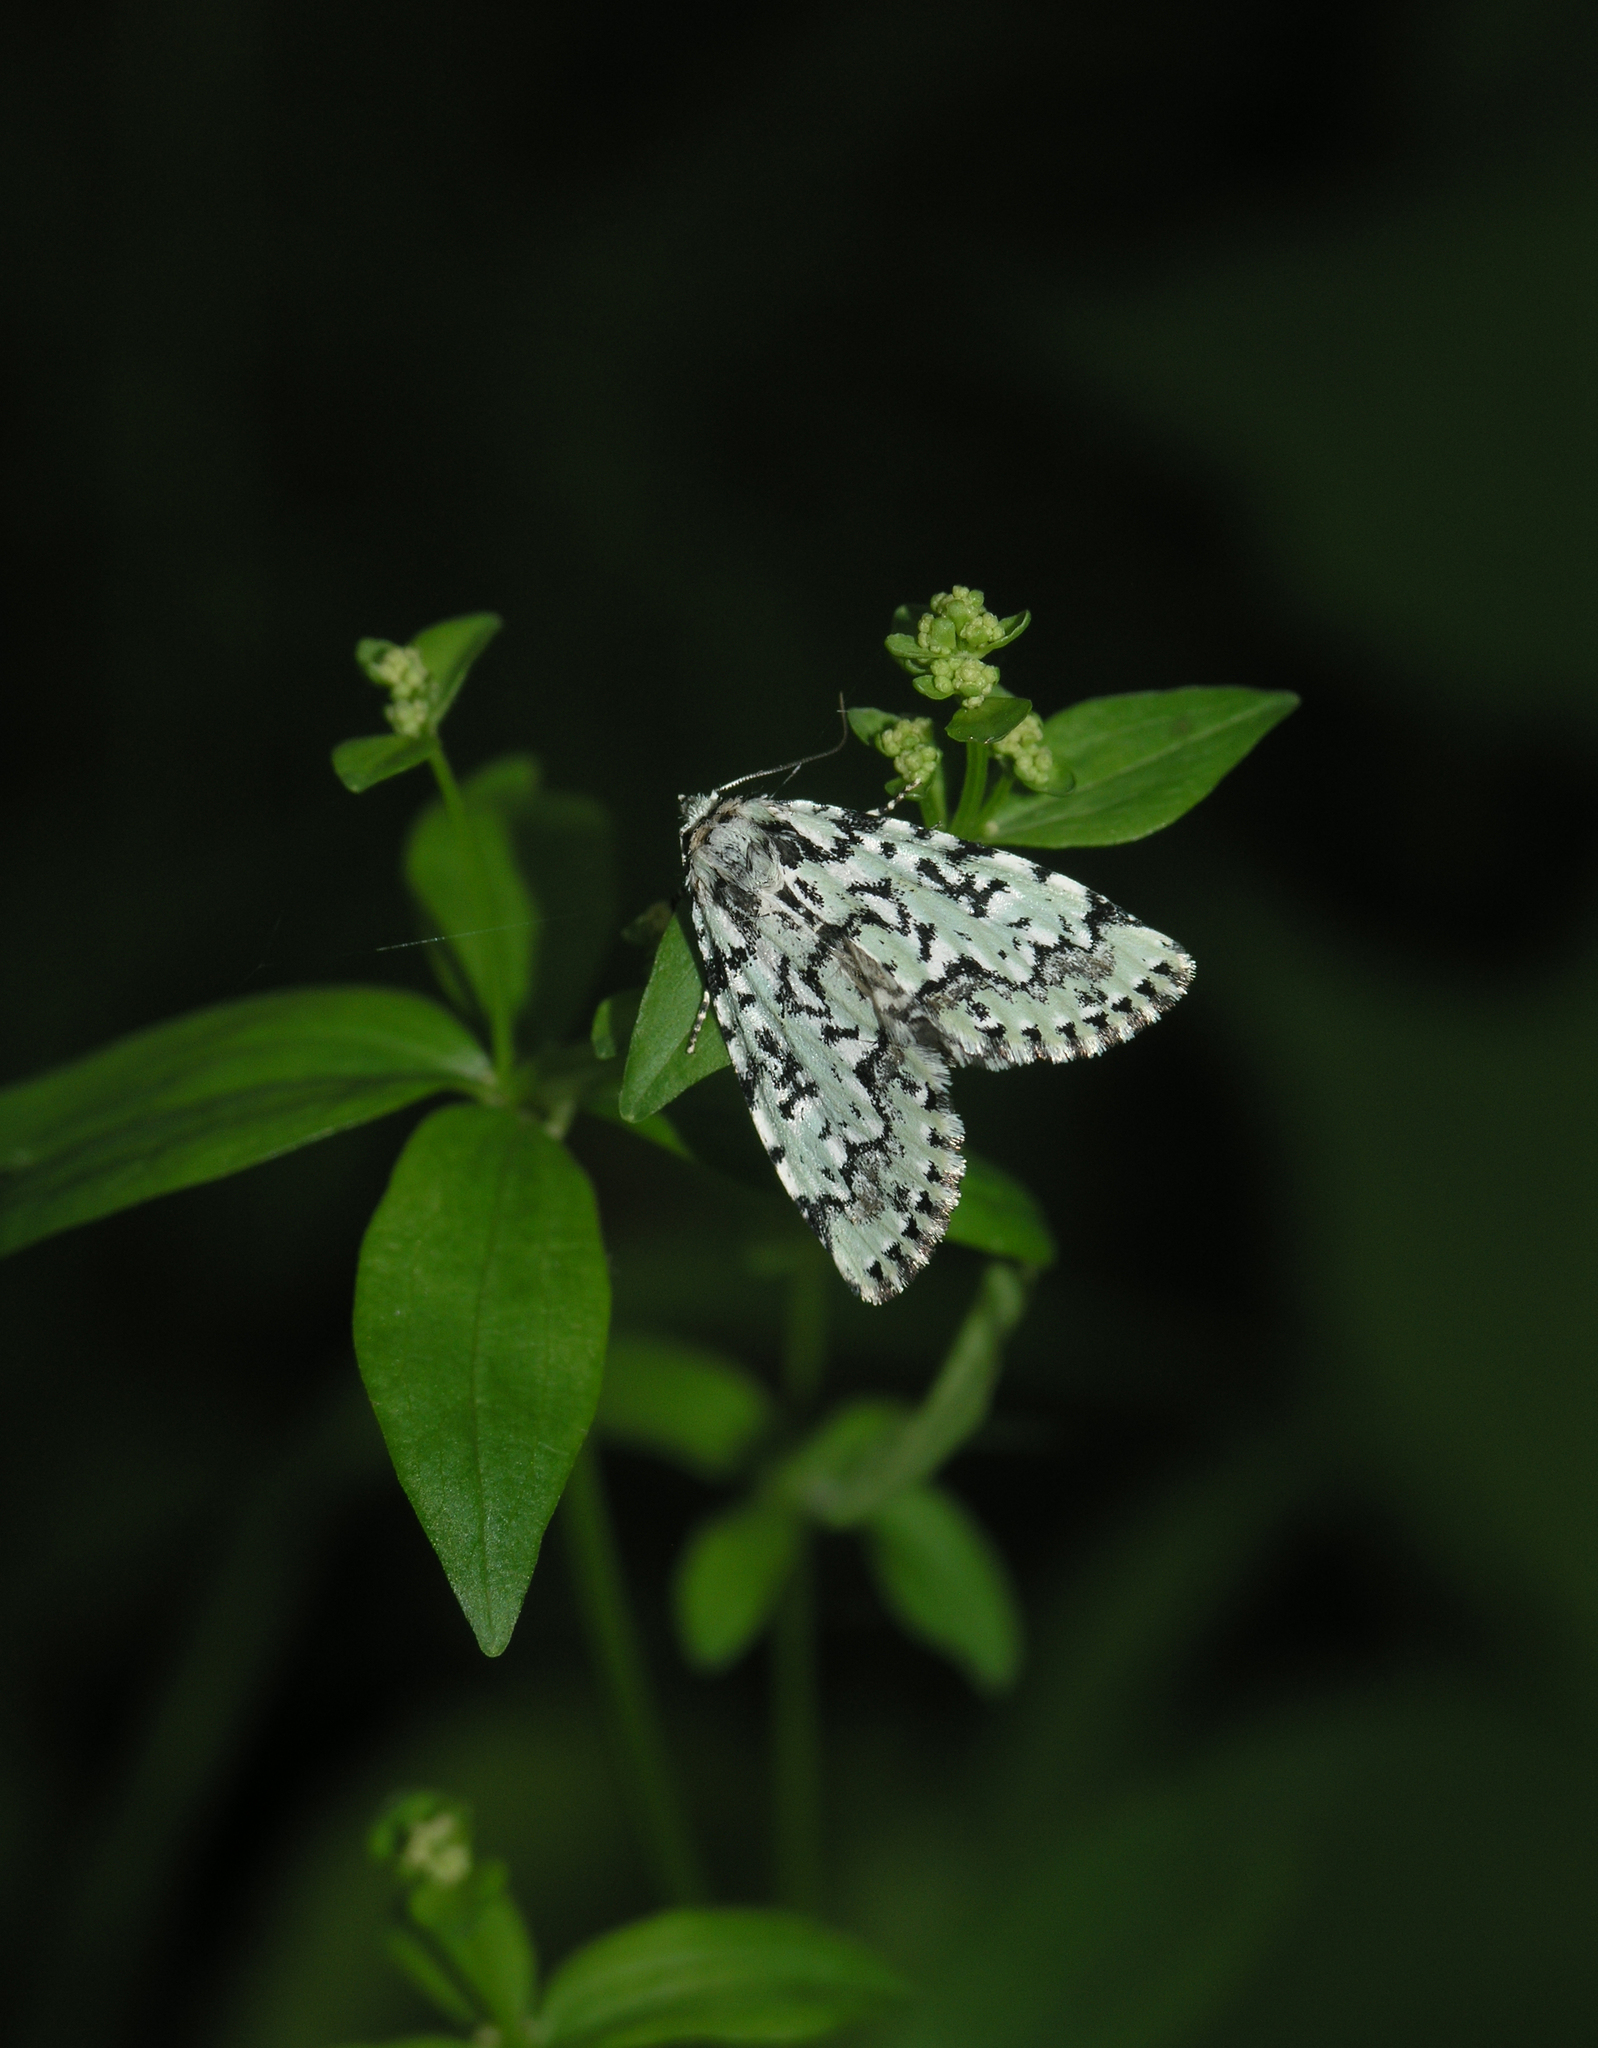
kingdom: Animalia
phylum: Arthropoda
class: Insecta
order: Lepidoptera
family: Noctuidae
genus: Moma
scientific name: Moma alpium
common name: Scarce merveille du jour
